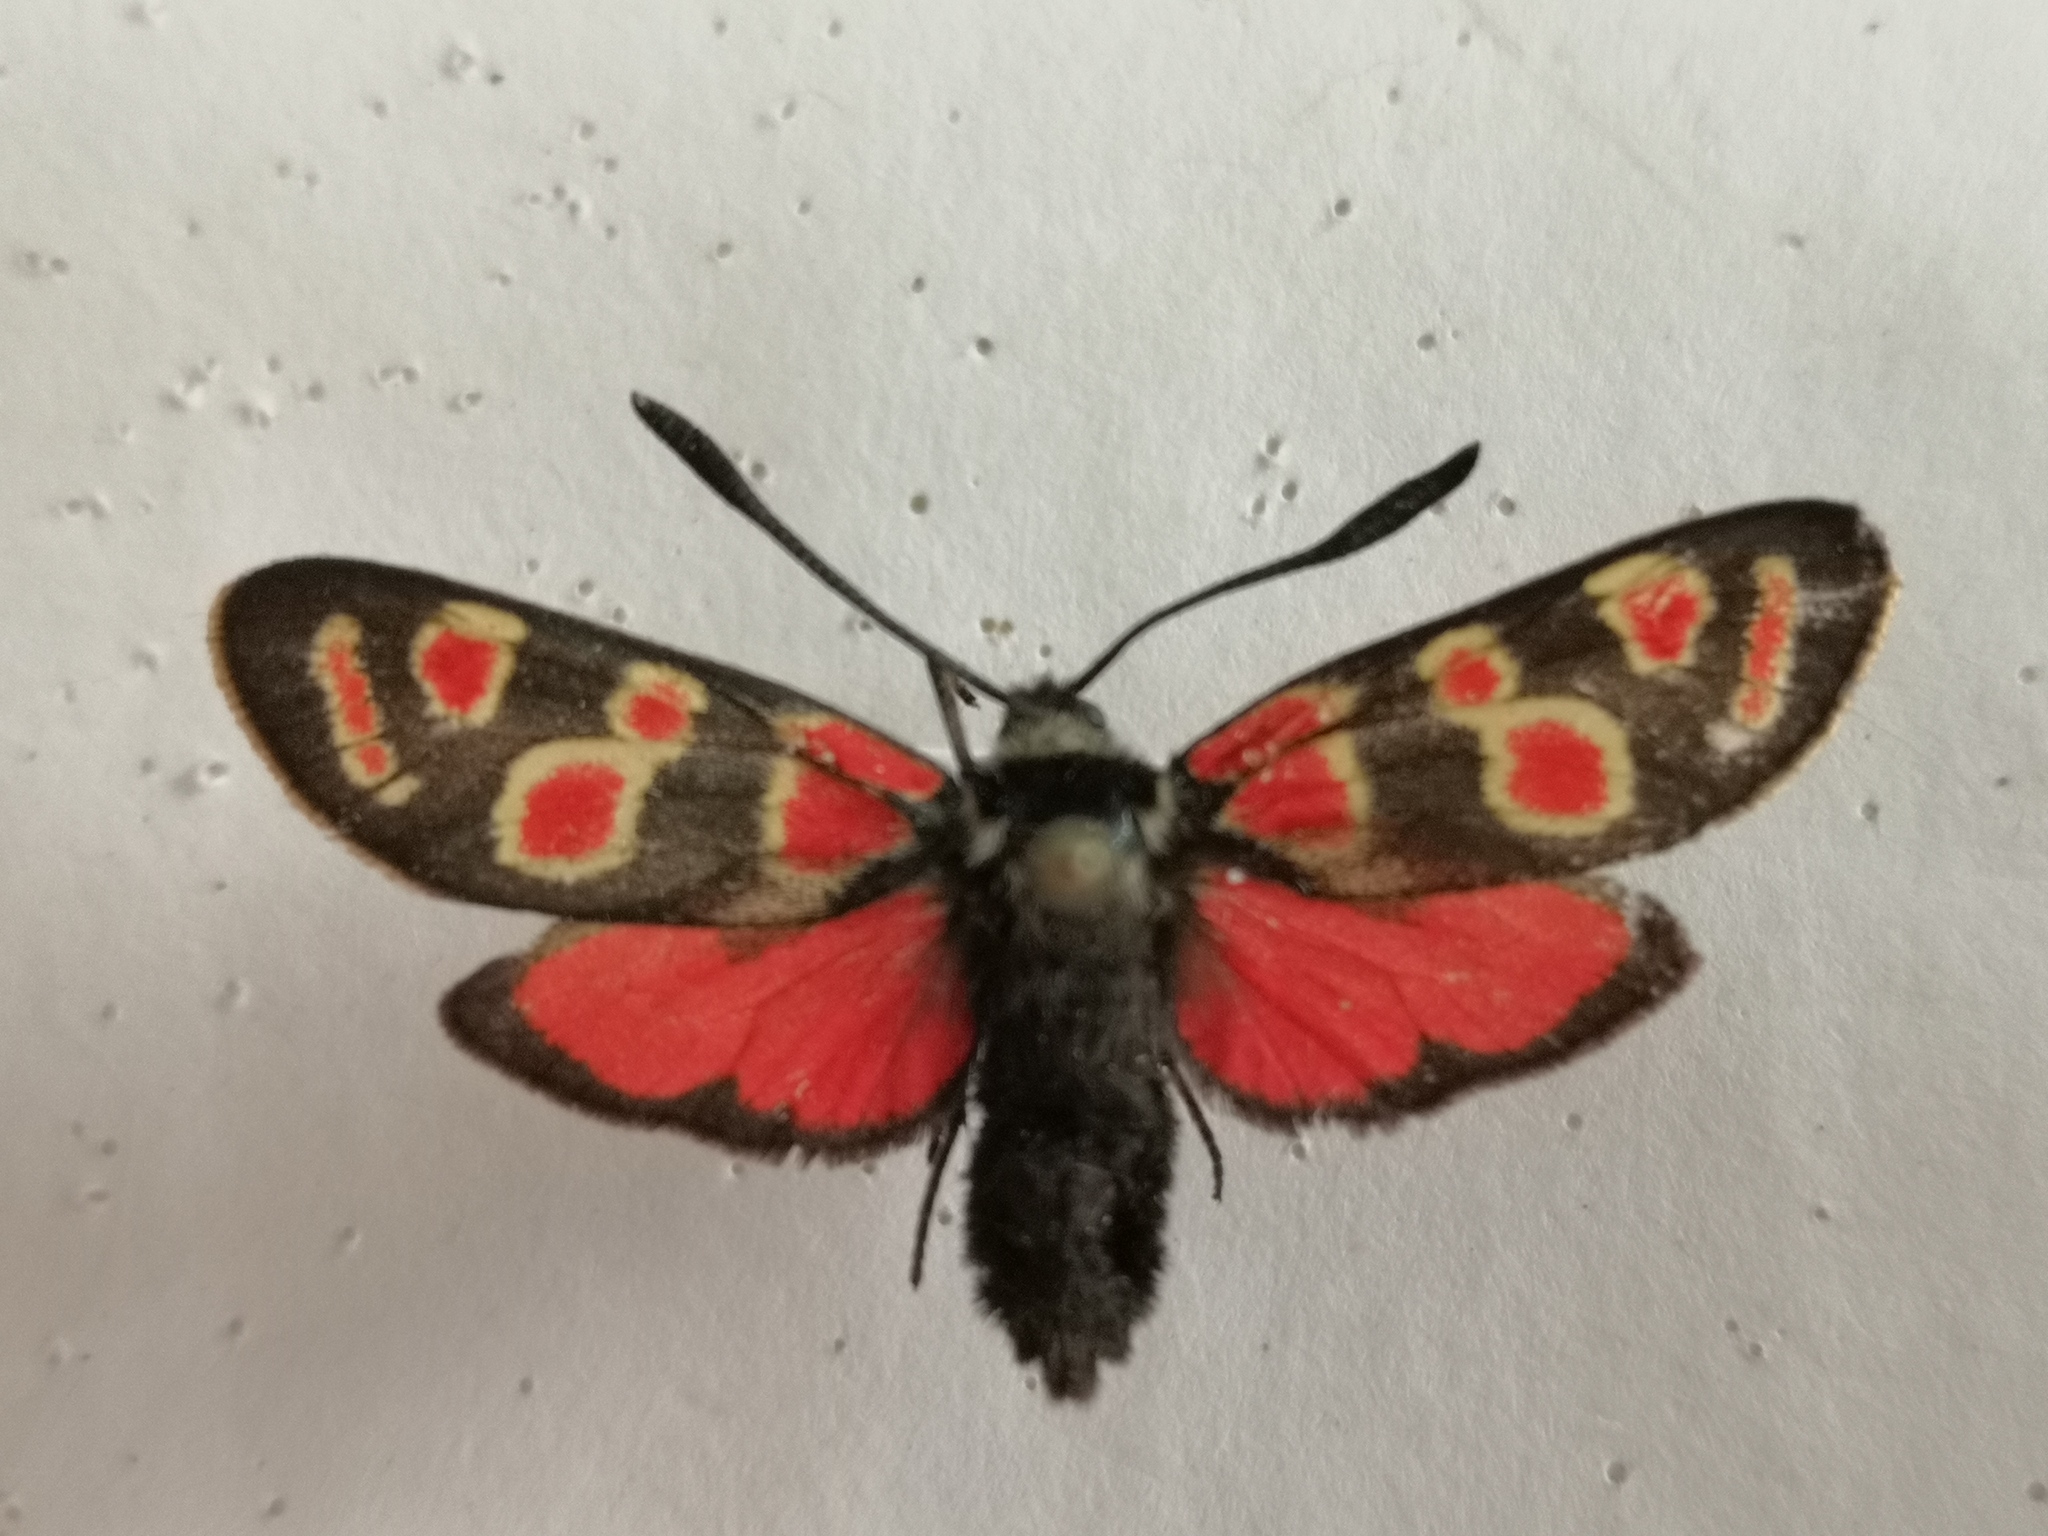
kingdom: Animalia
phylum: Arthropoda
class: Insecta
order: Lepidoptera
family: Zygaenidae
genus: Zygaena
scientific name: Zygaena carniolica
